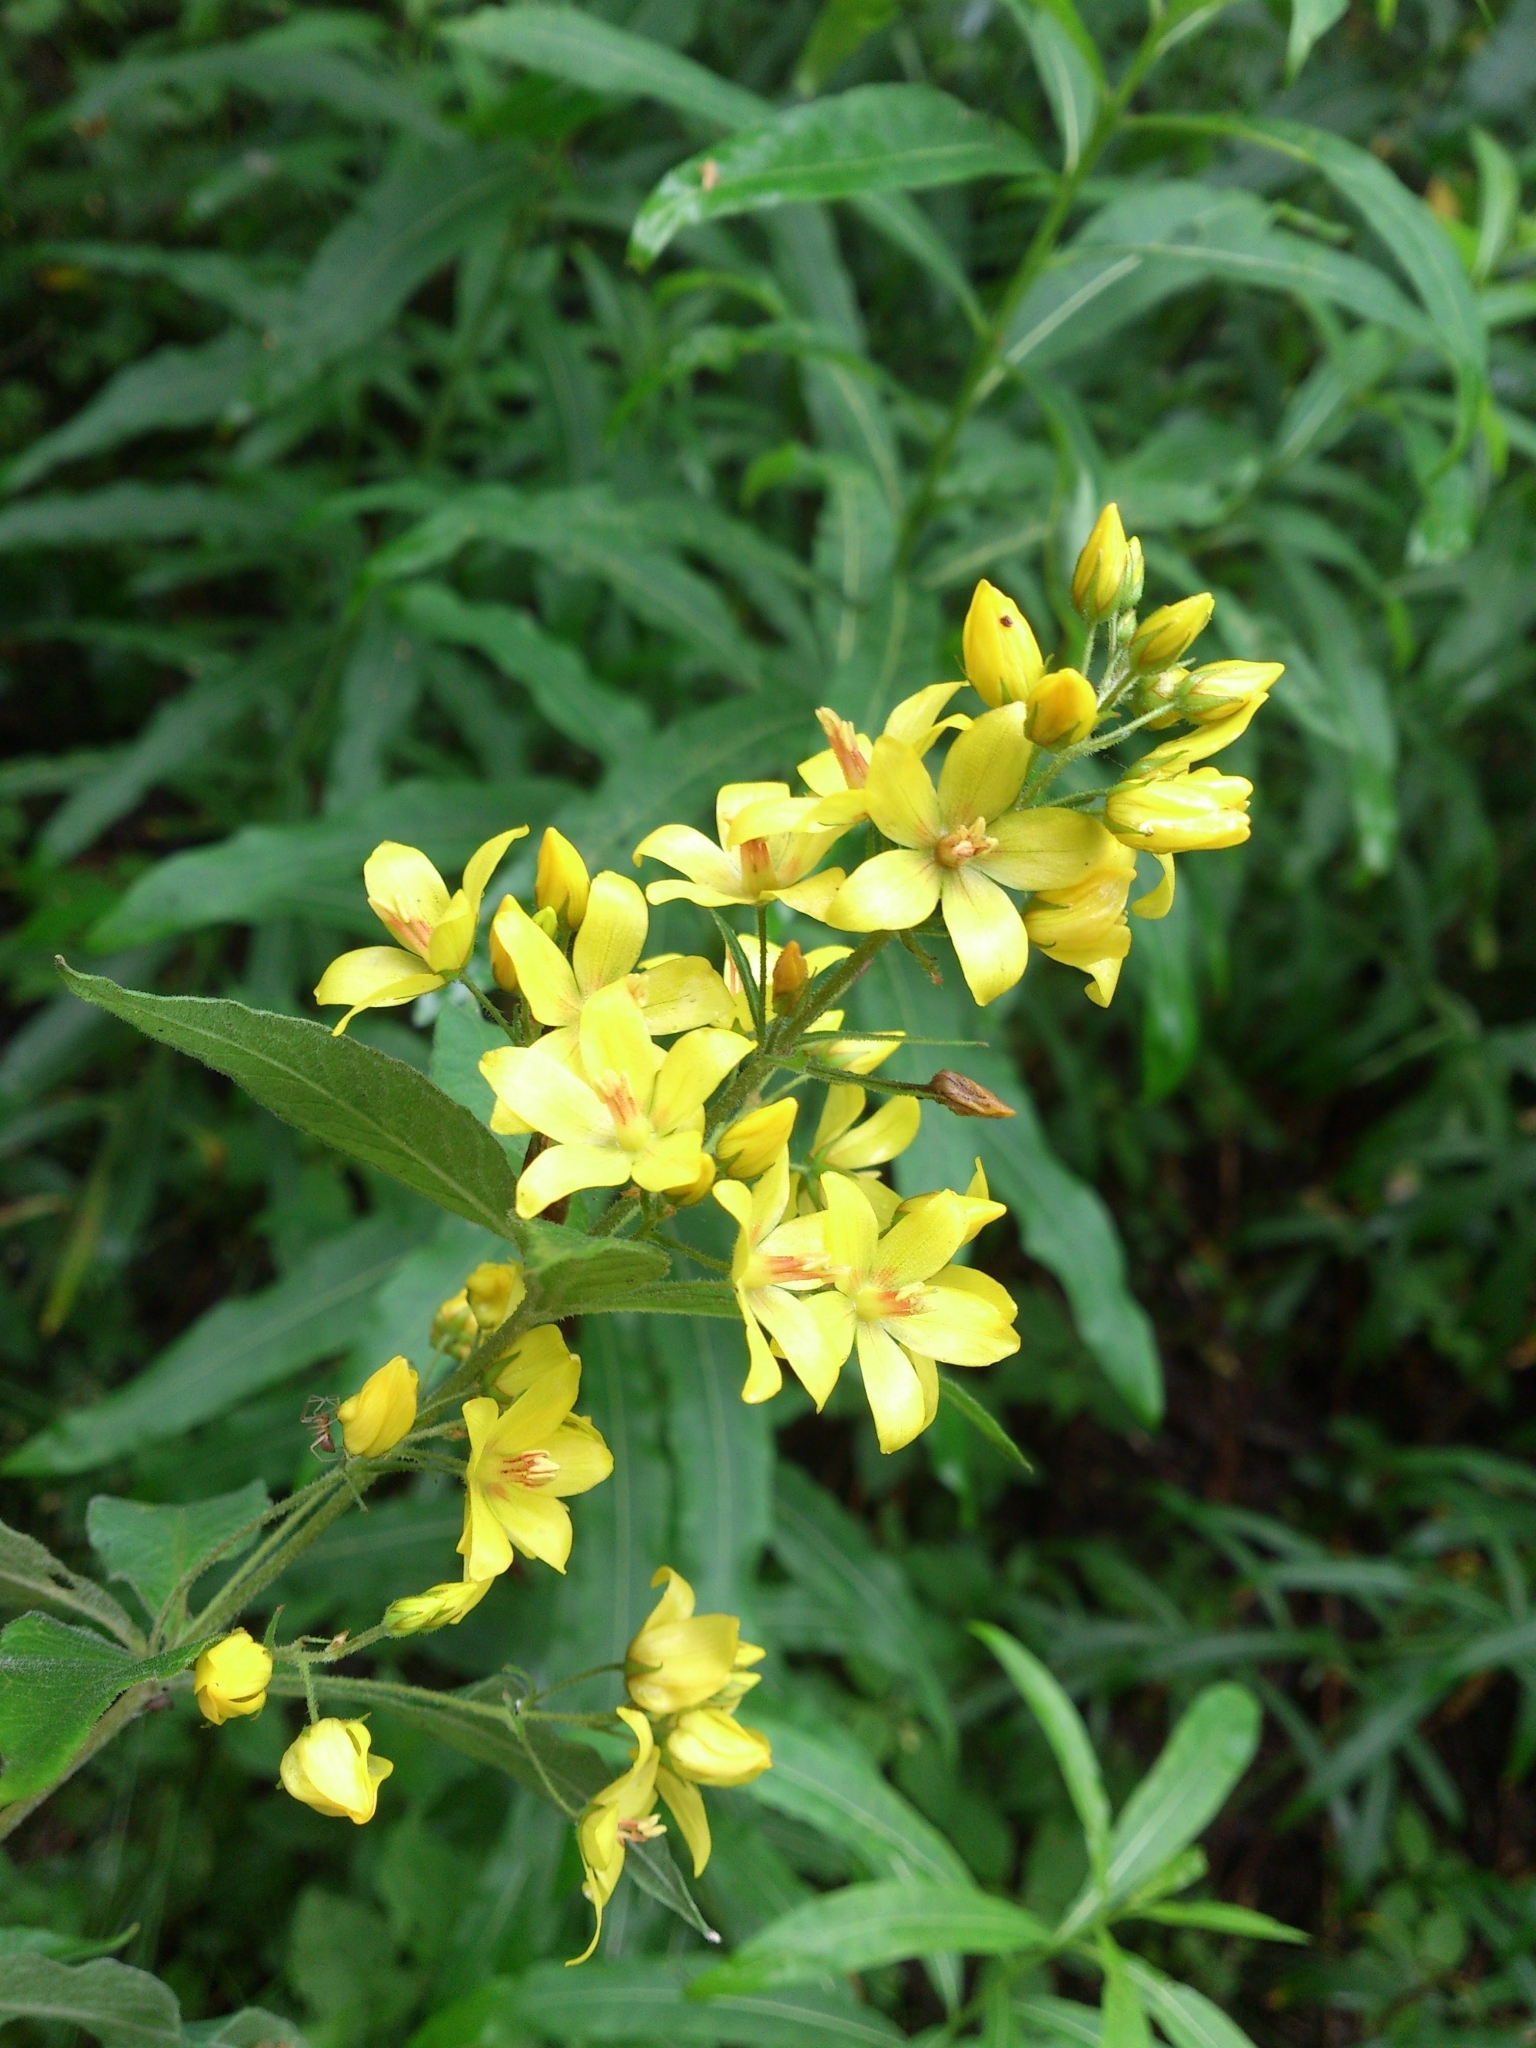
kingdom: Plantae
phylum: Tracheophyta
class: Magnoliopsida
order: Ericales
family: Primulaceae
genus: Lysimachia
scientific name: Lysimachia vulgaris
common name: Yellow loosestrife
